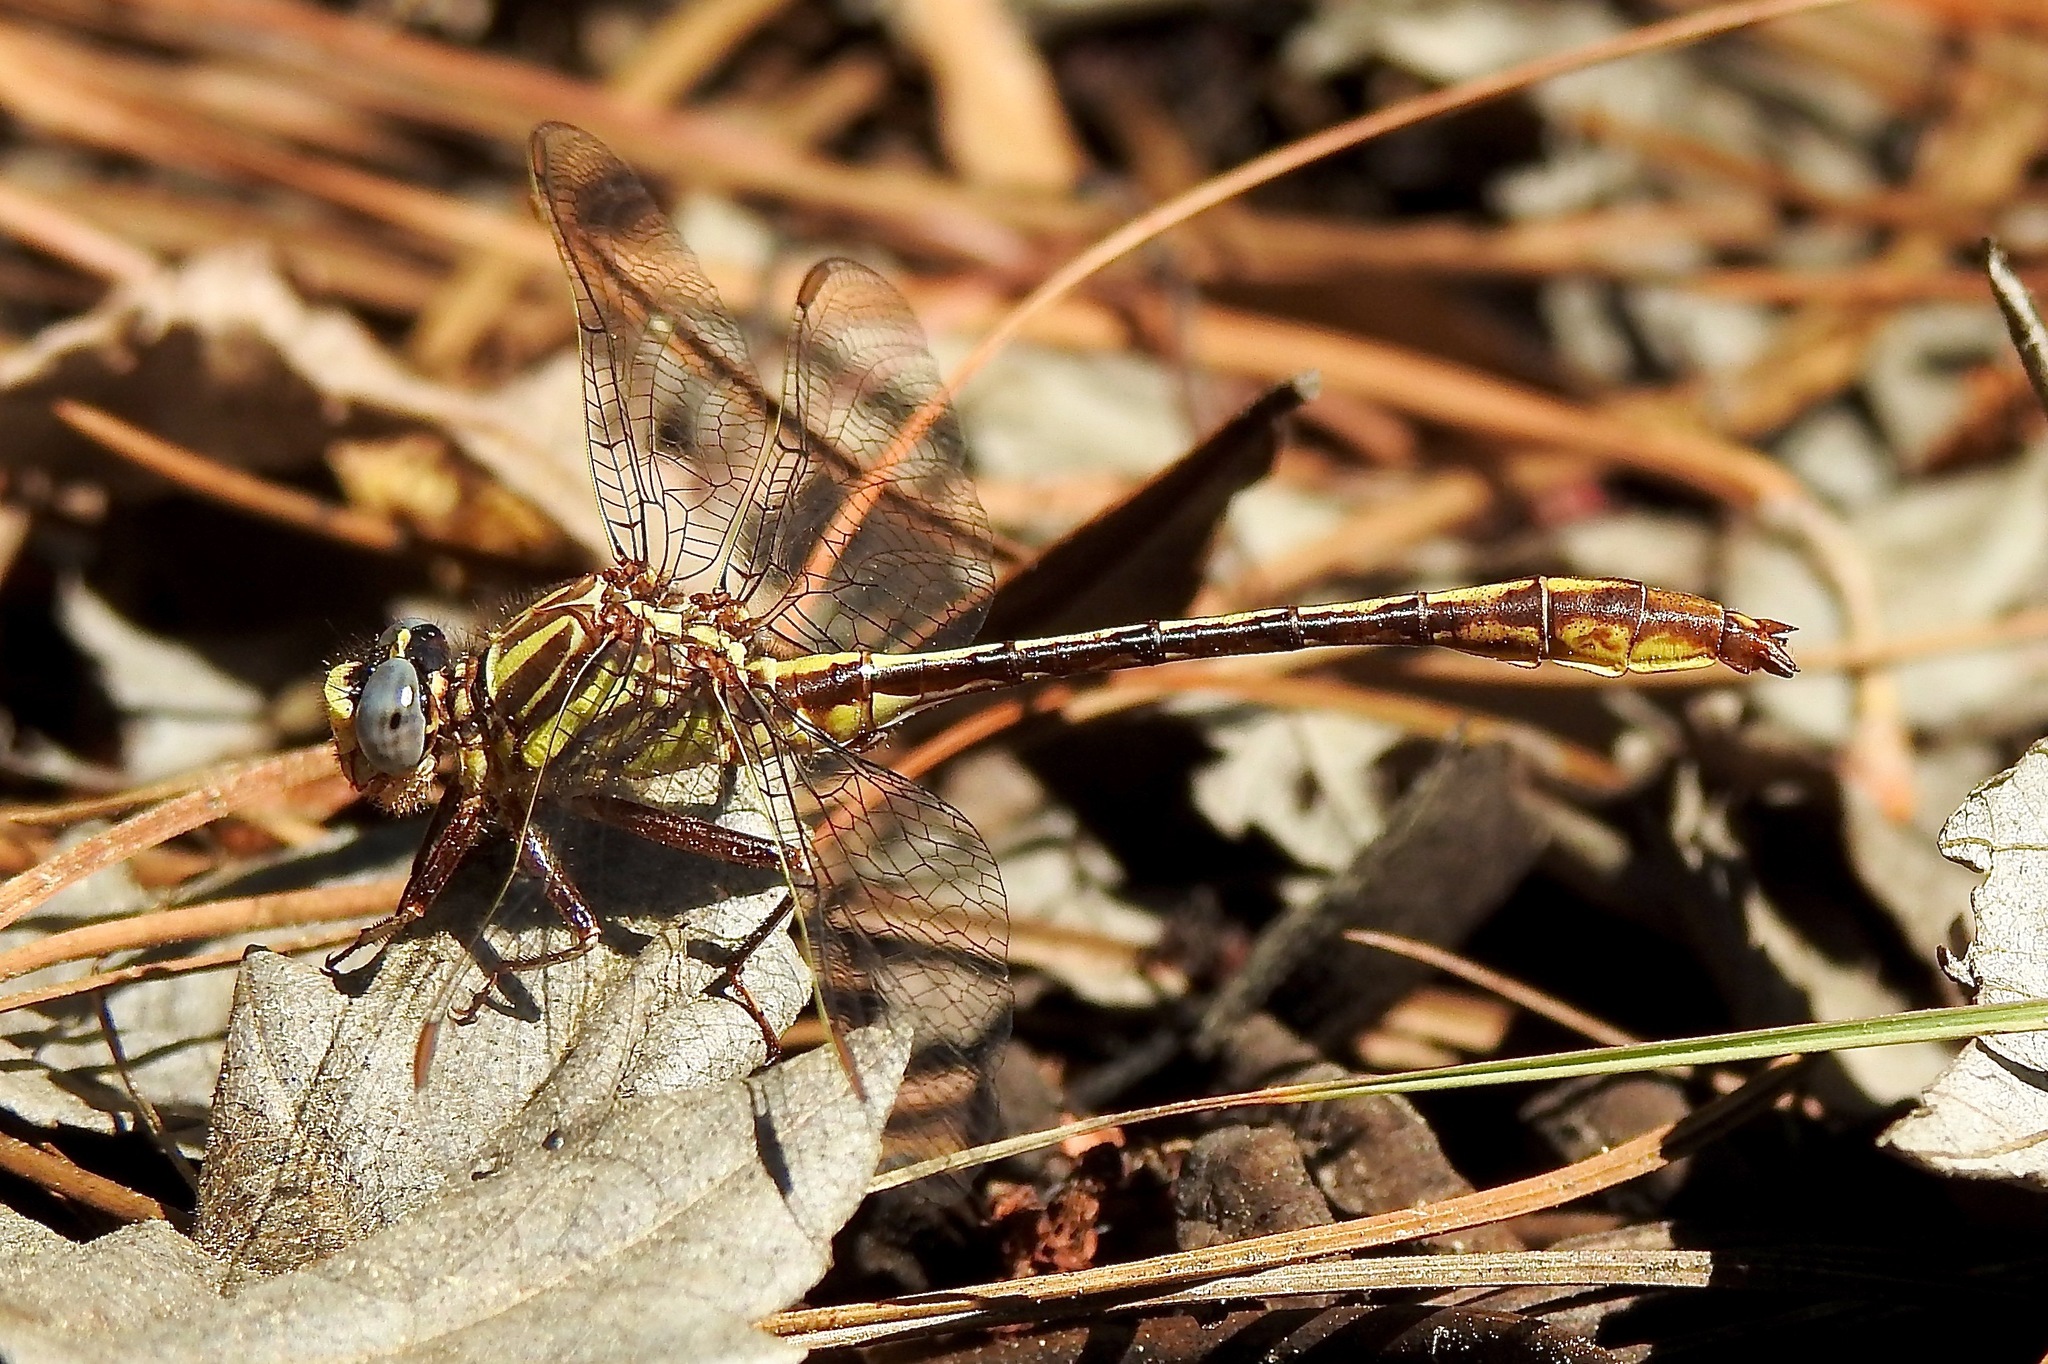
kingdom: Animalia
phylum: Arthropoda
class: Insecta
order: Odonata
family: Gomphidae
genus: Phanogomphus
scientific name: Phanogomphus minutus
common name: Cypress clubtail
